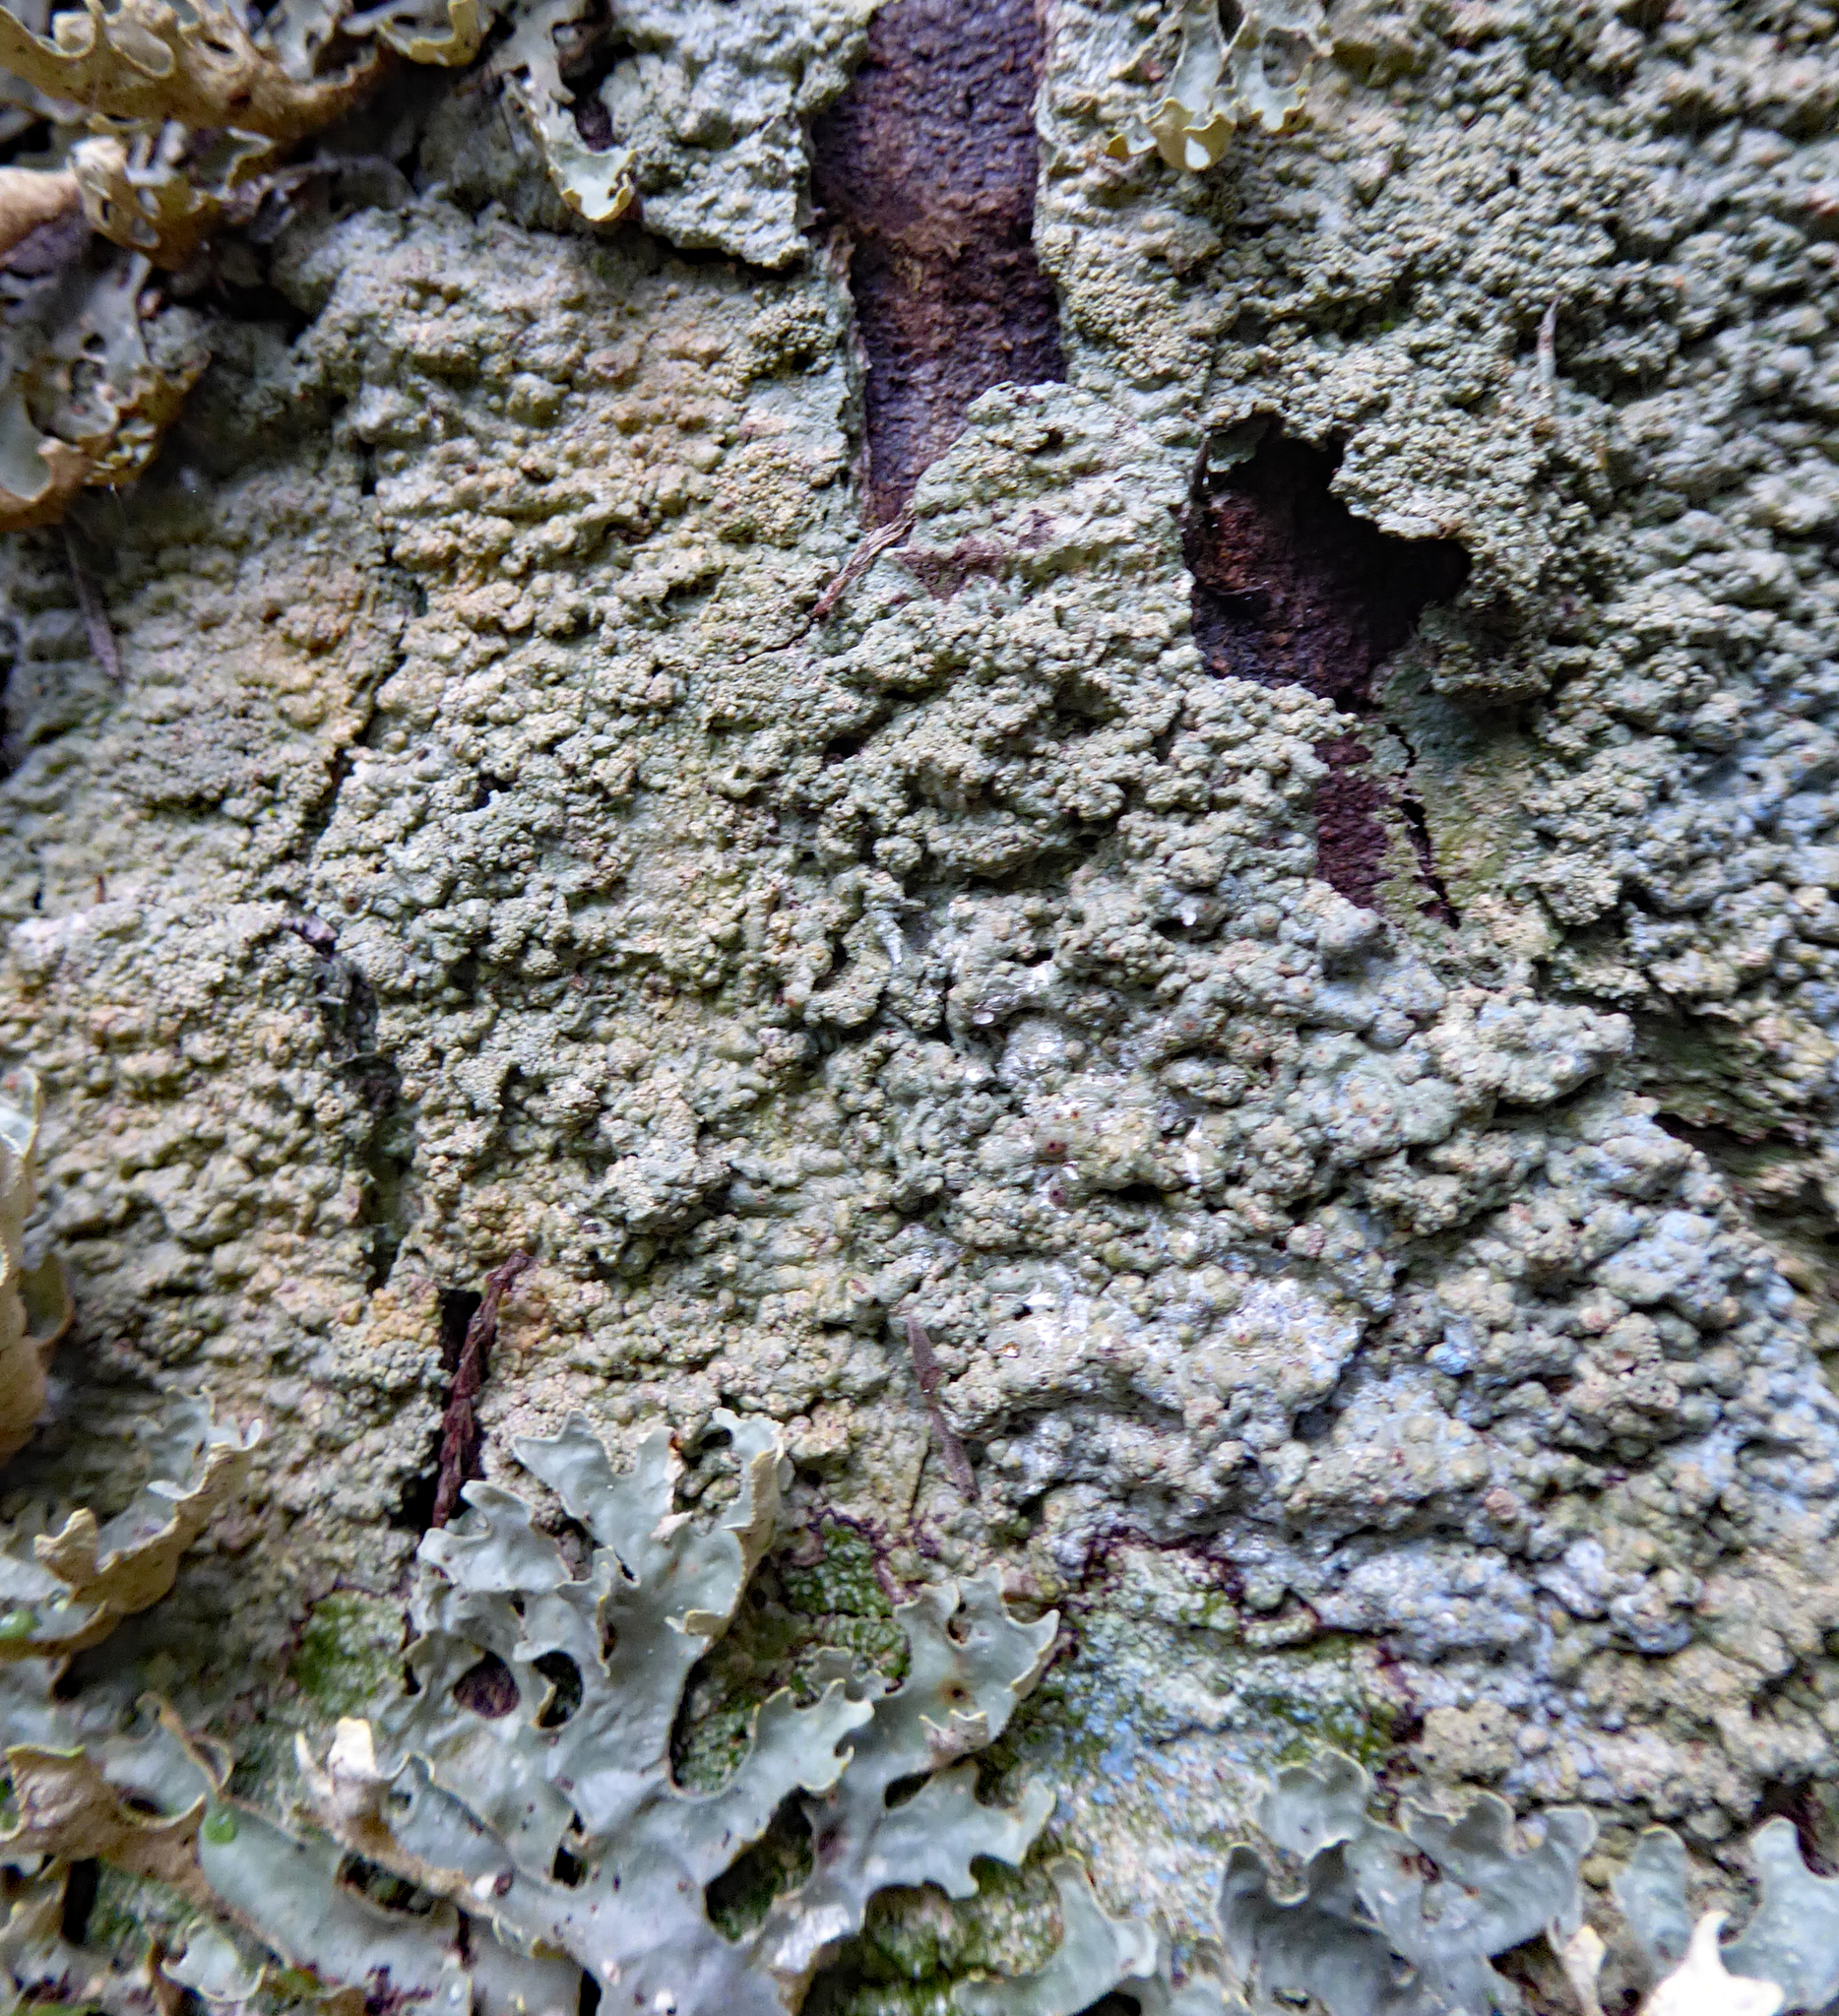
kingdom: Fungi
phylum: Ascomycota
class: Lecanoromycetes
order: Pertusariales
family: Pertusariaceae
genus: Porina
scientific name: Porina exocha
